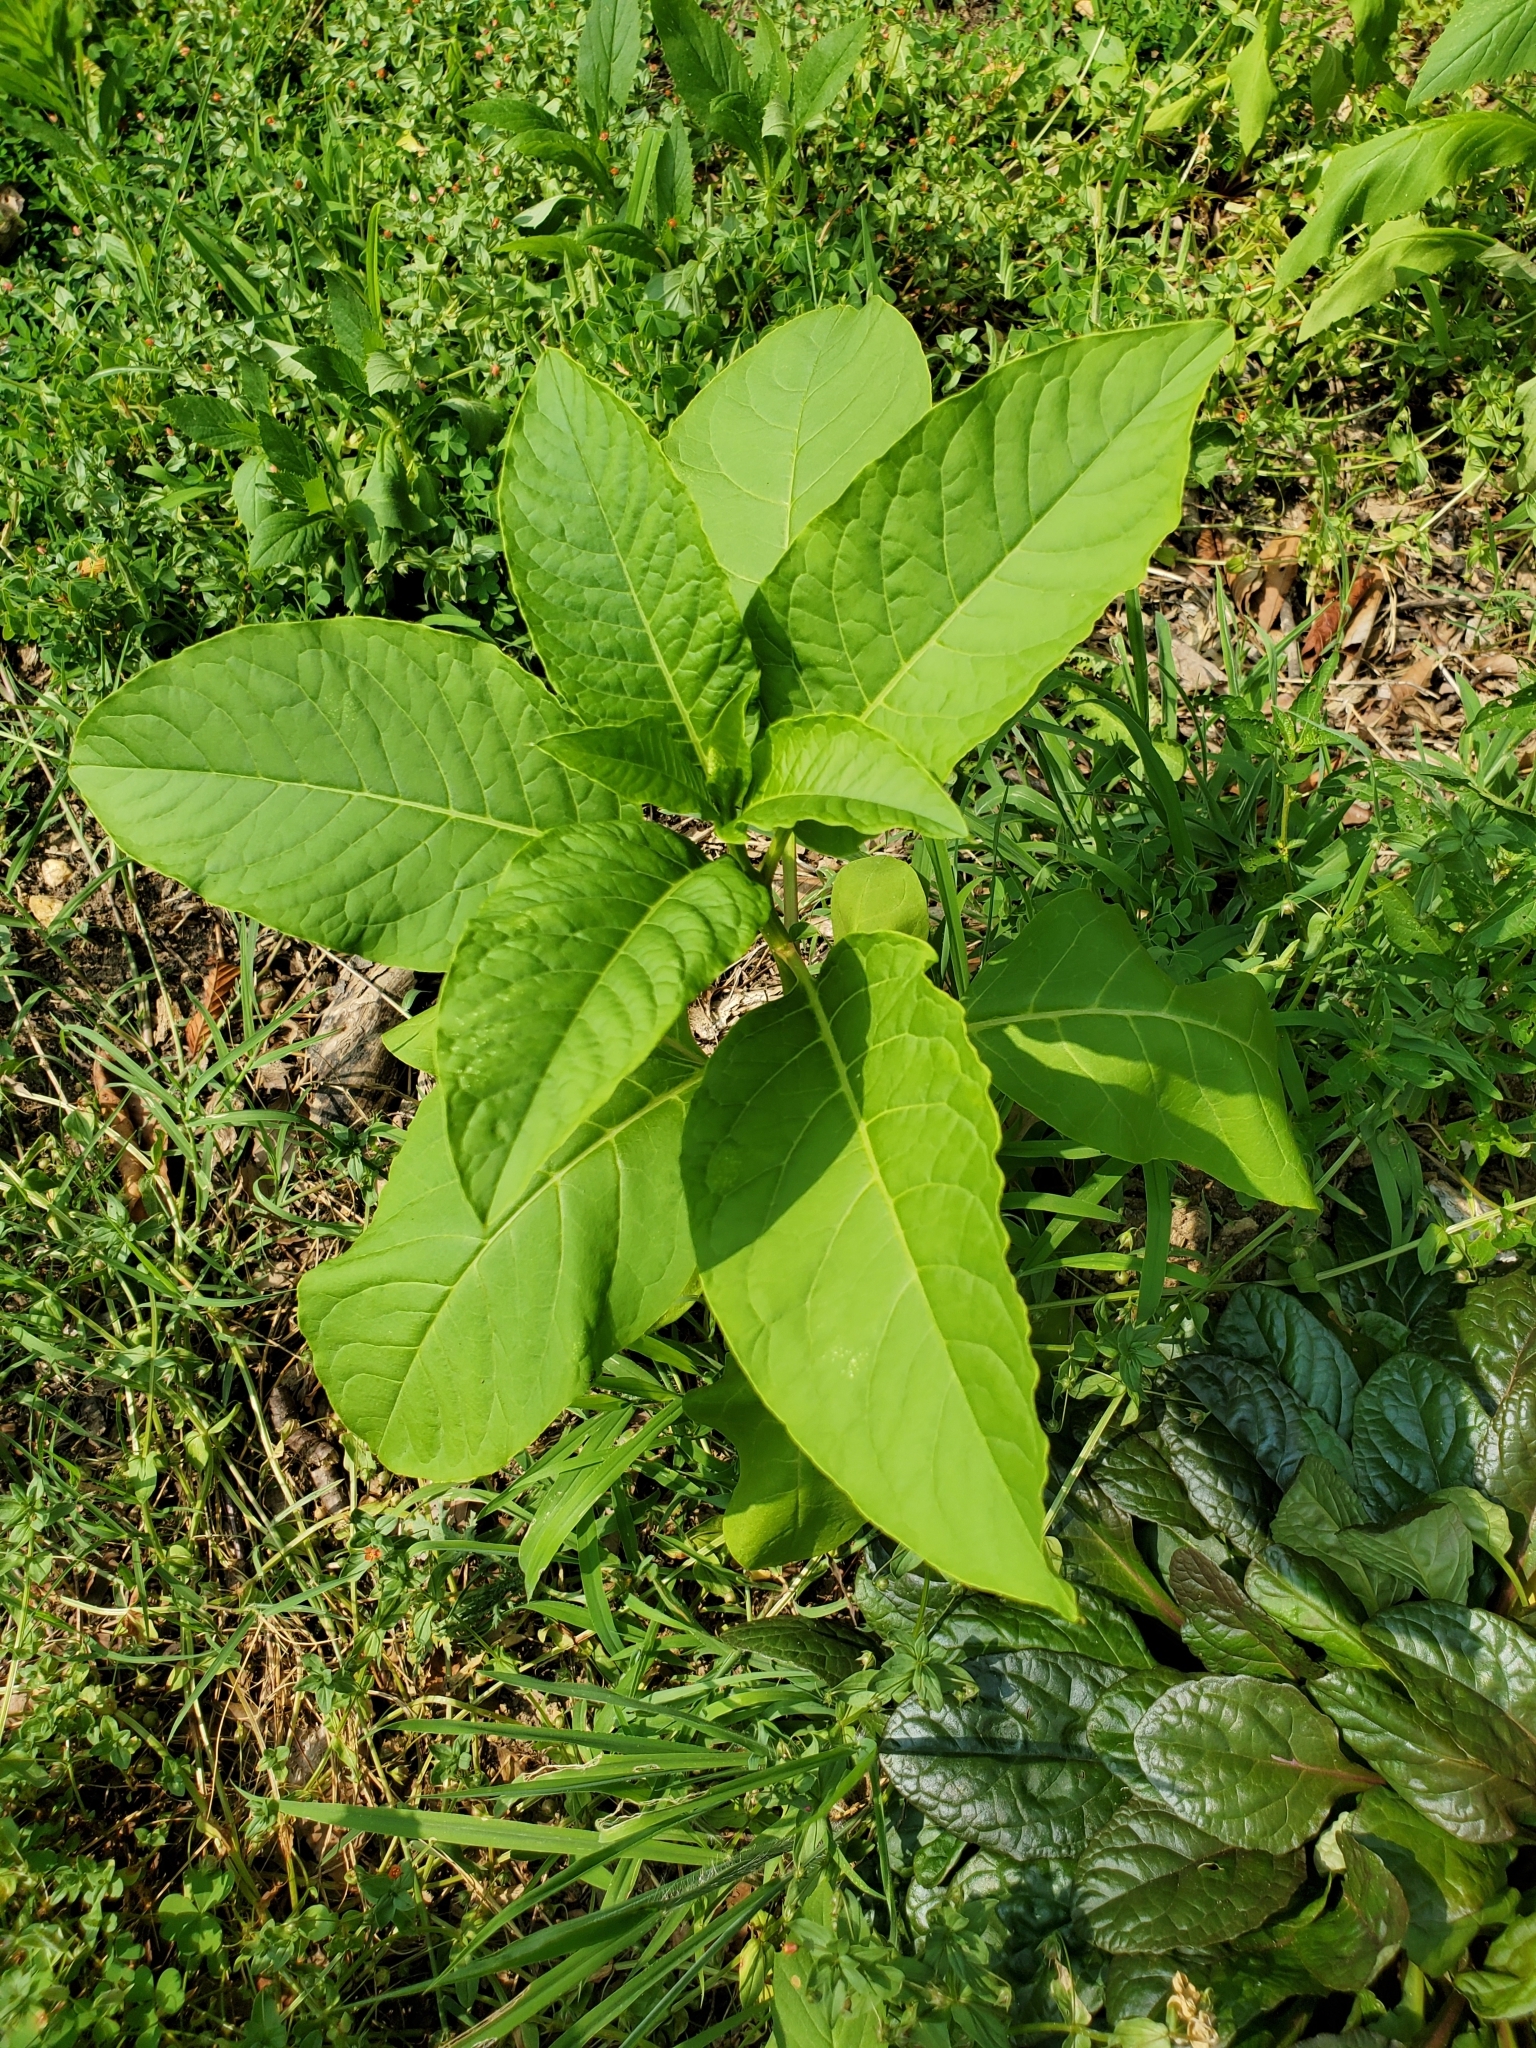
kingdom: Plantae
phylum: Tracheophyta
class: Magnoliopsida
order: Caryophyllales
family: Phytolaccaceae
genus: Phytolacca
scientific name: Phytolacca americana
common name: American pokeweed
